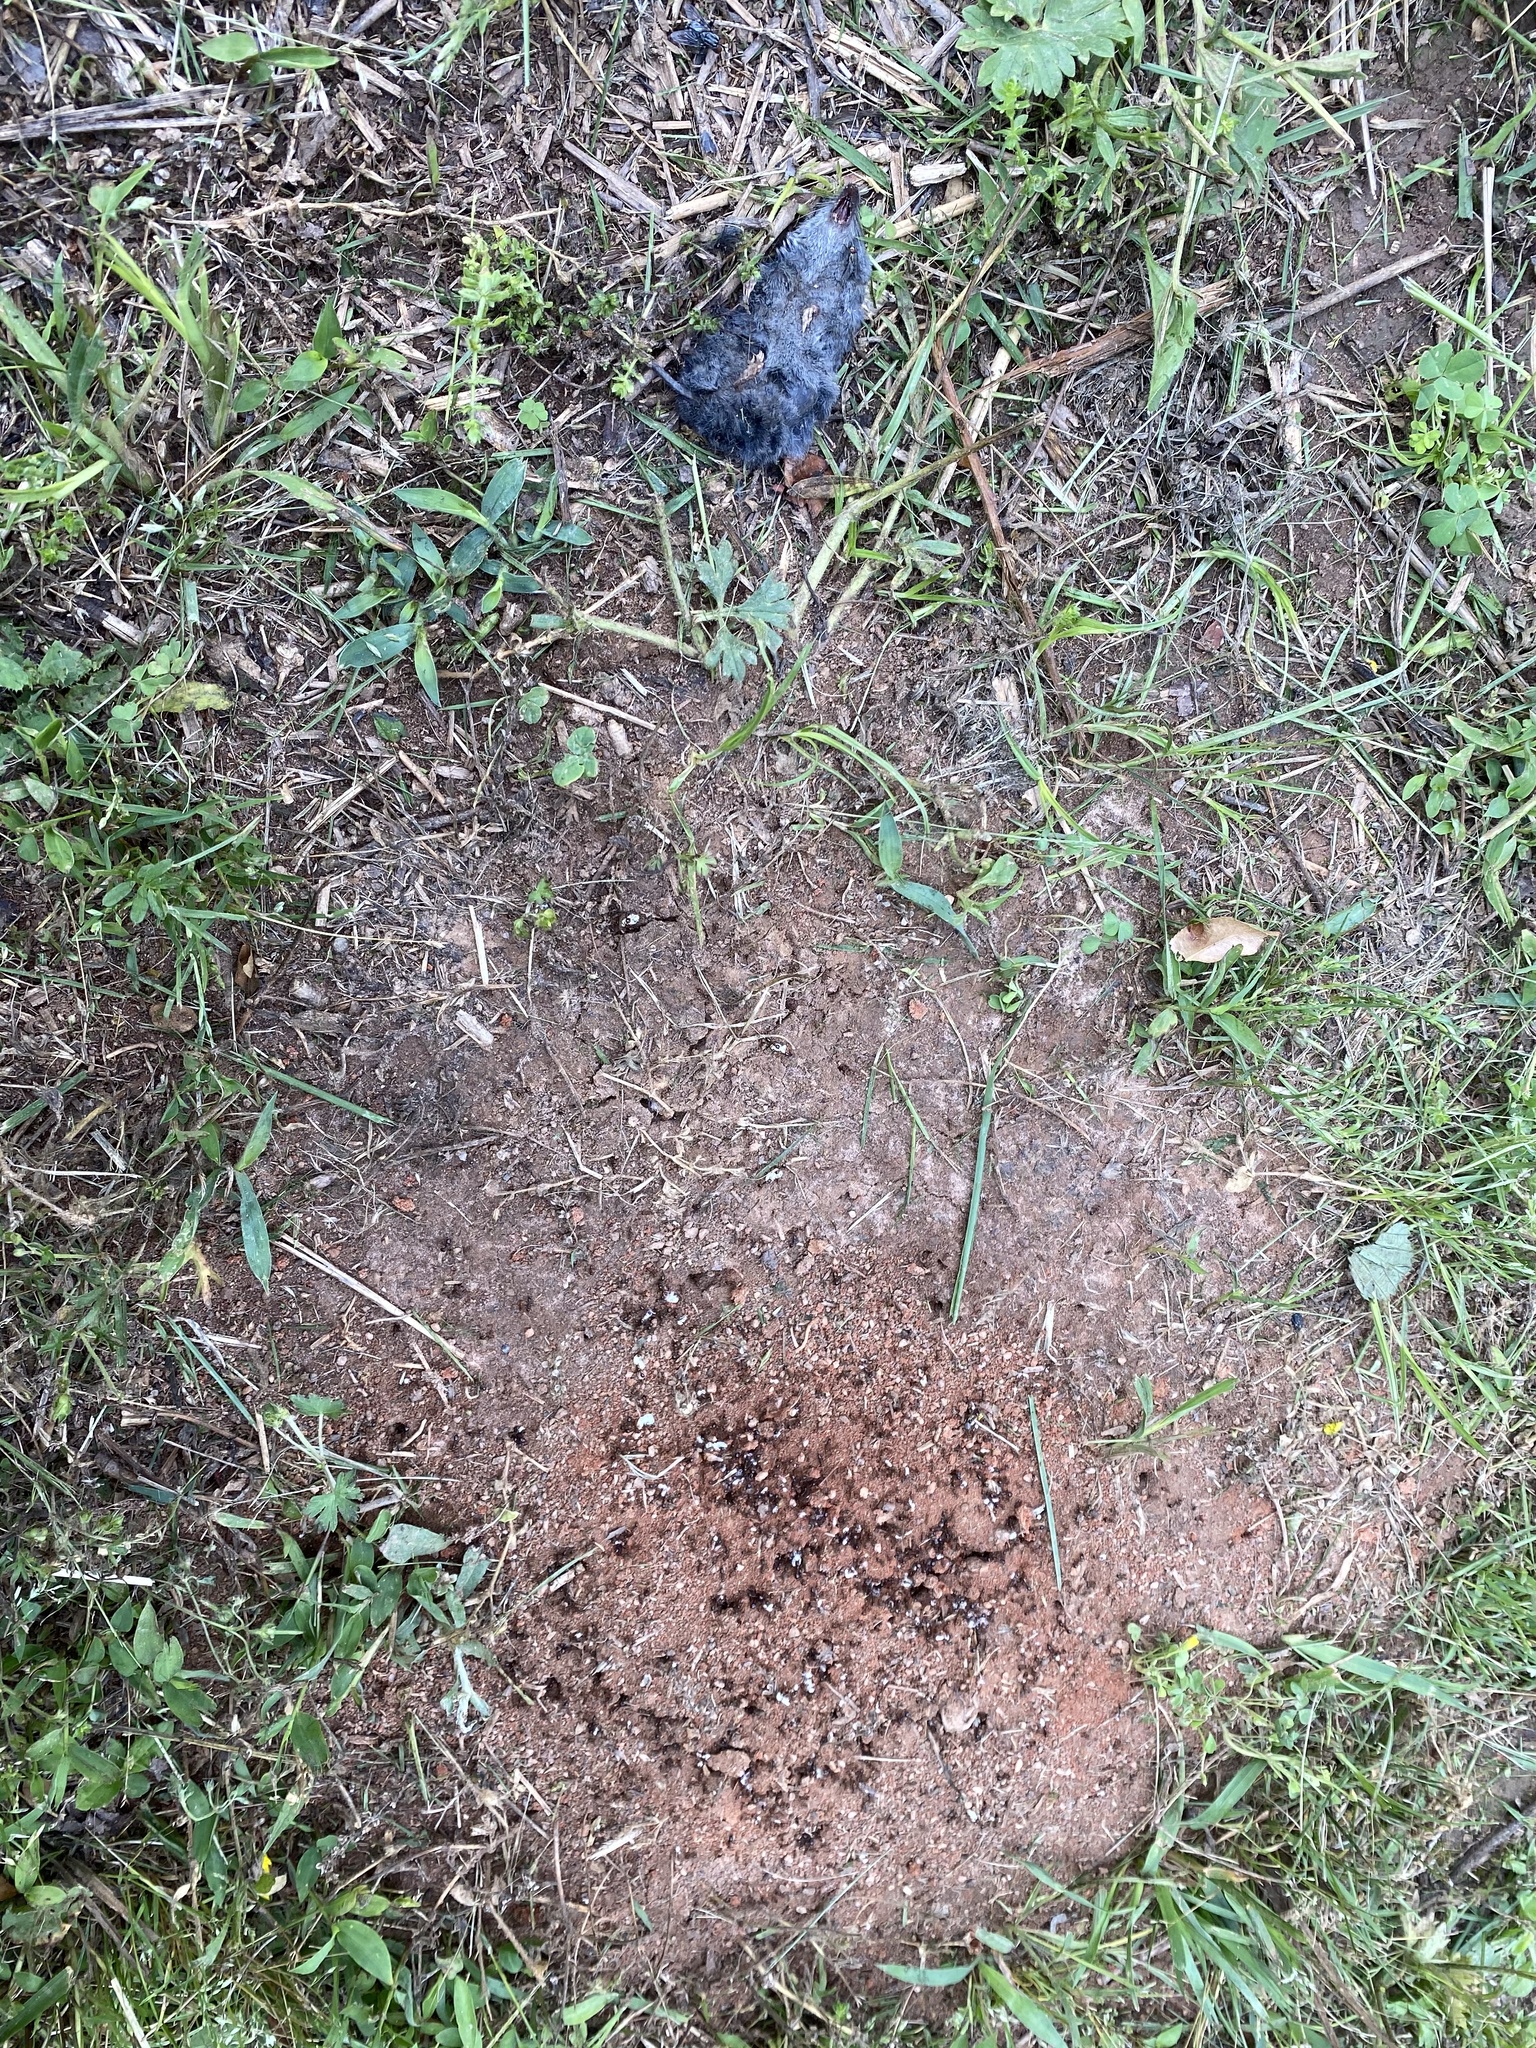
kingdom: Animalia
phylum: Chordata
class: Mammalia
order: Soricomorpha
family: Soricidae
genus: Blarina
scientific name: Blarina carolinensis
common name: Southern short-tailed shrew
